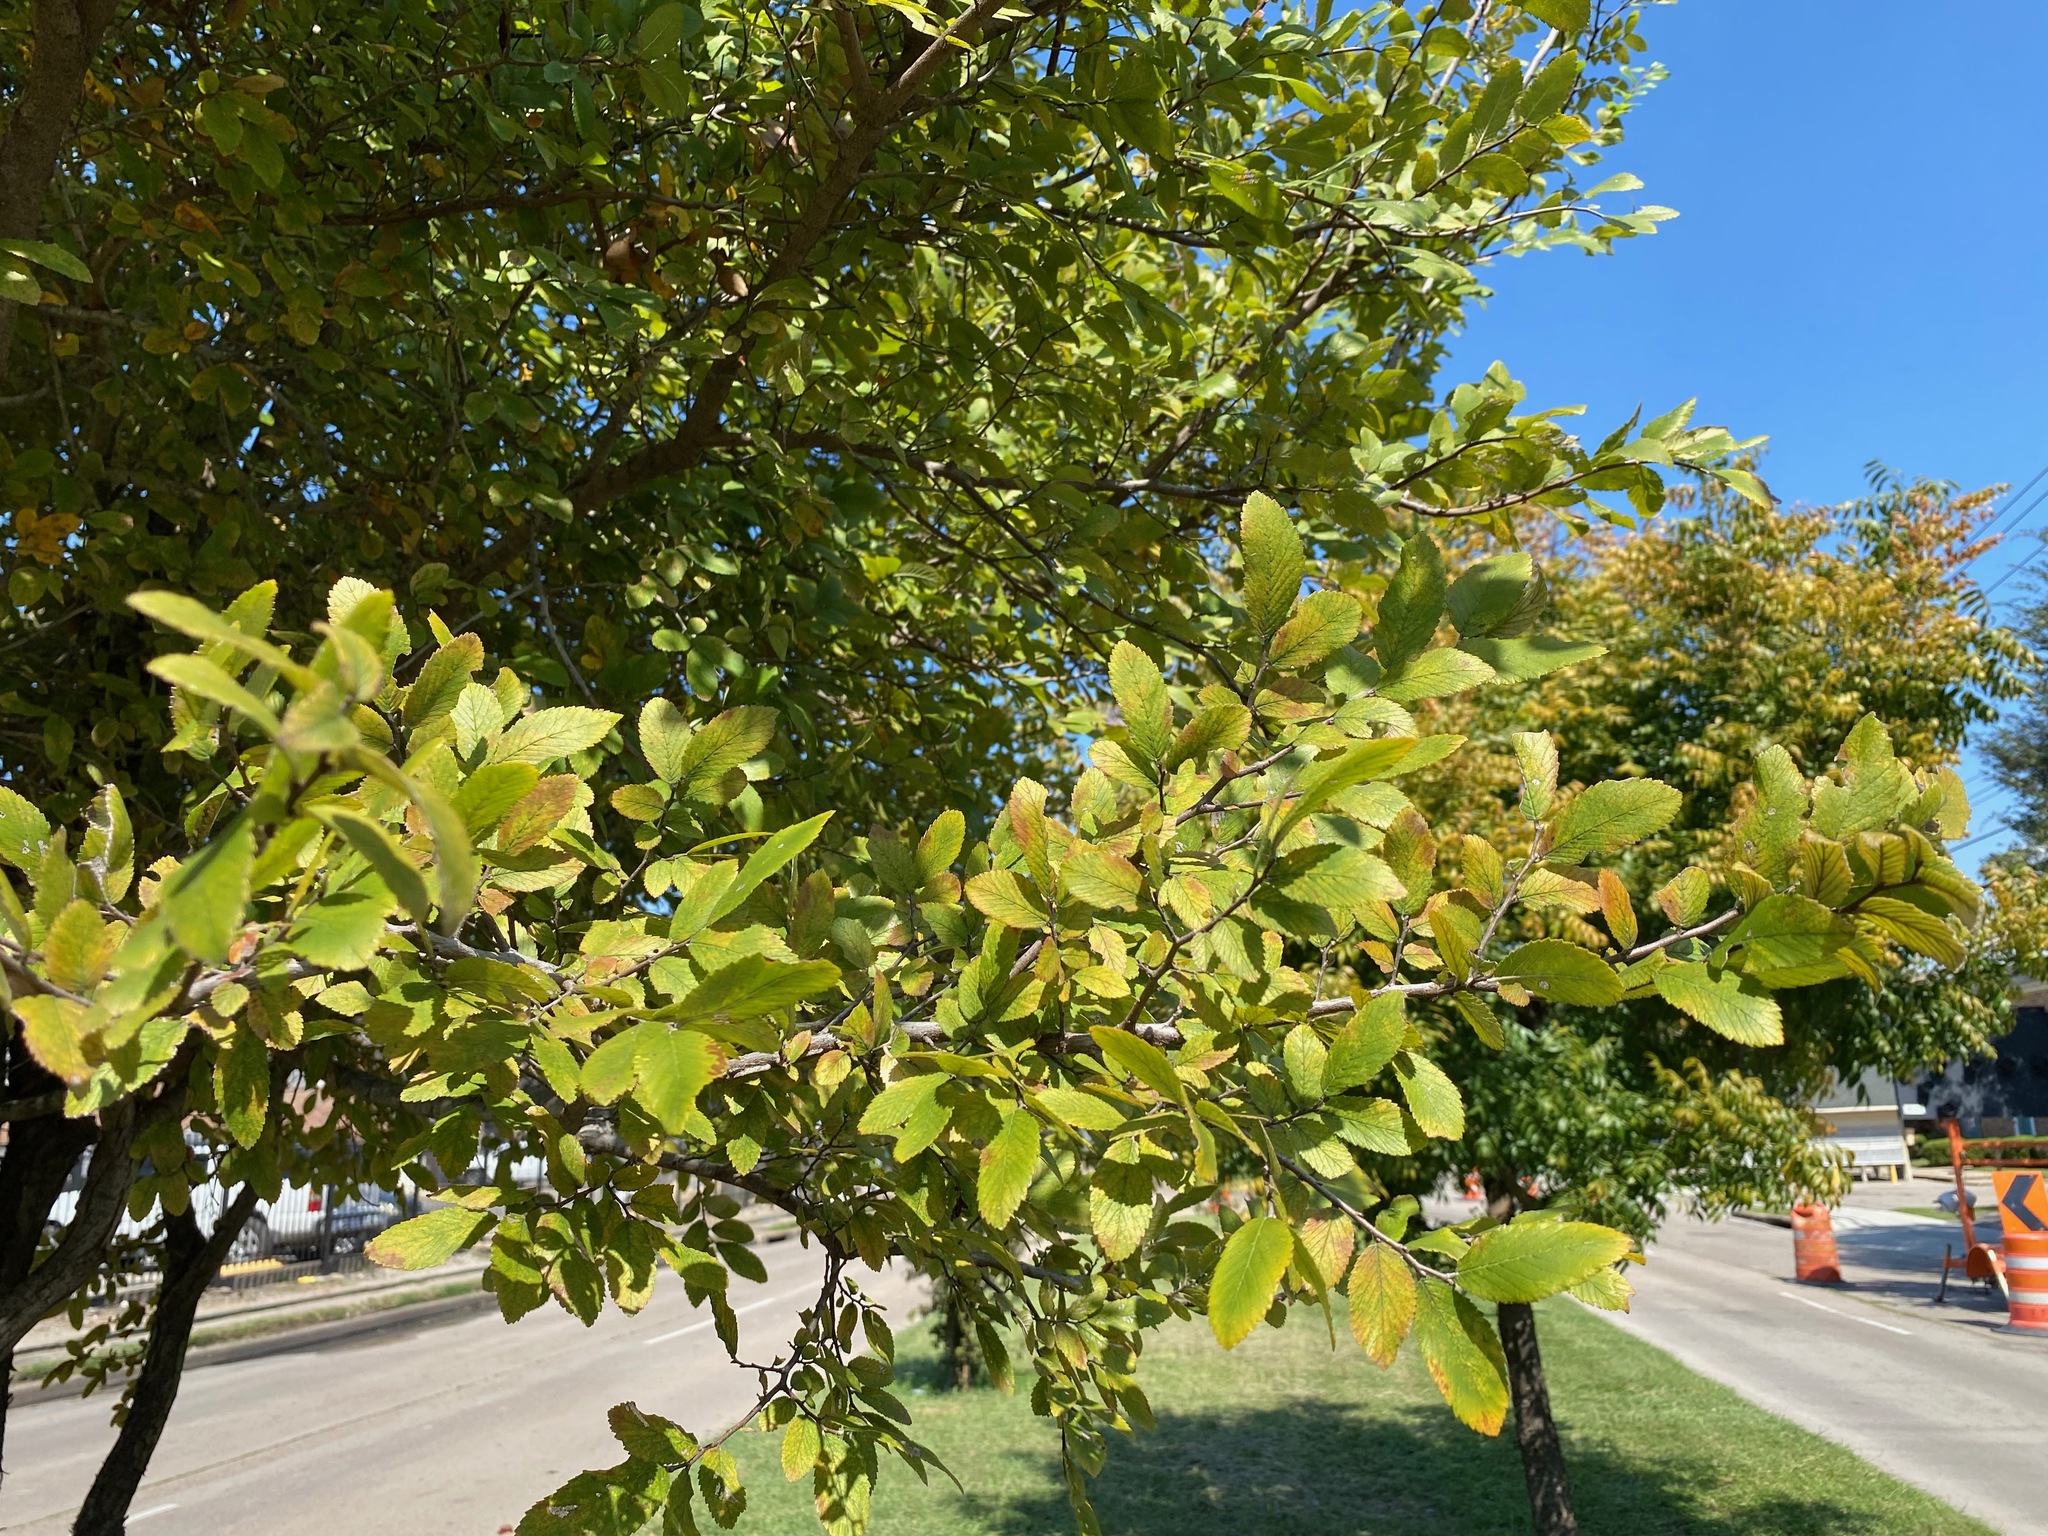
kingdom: Plantae
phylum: Tracheophyta
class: Magnoliopsida
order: Rosales
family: Ulmaceae
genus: Ulmus
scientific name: Ulmus crassifolia
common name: Basket elm
